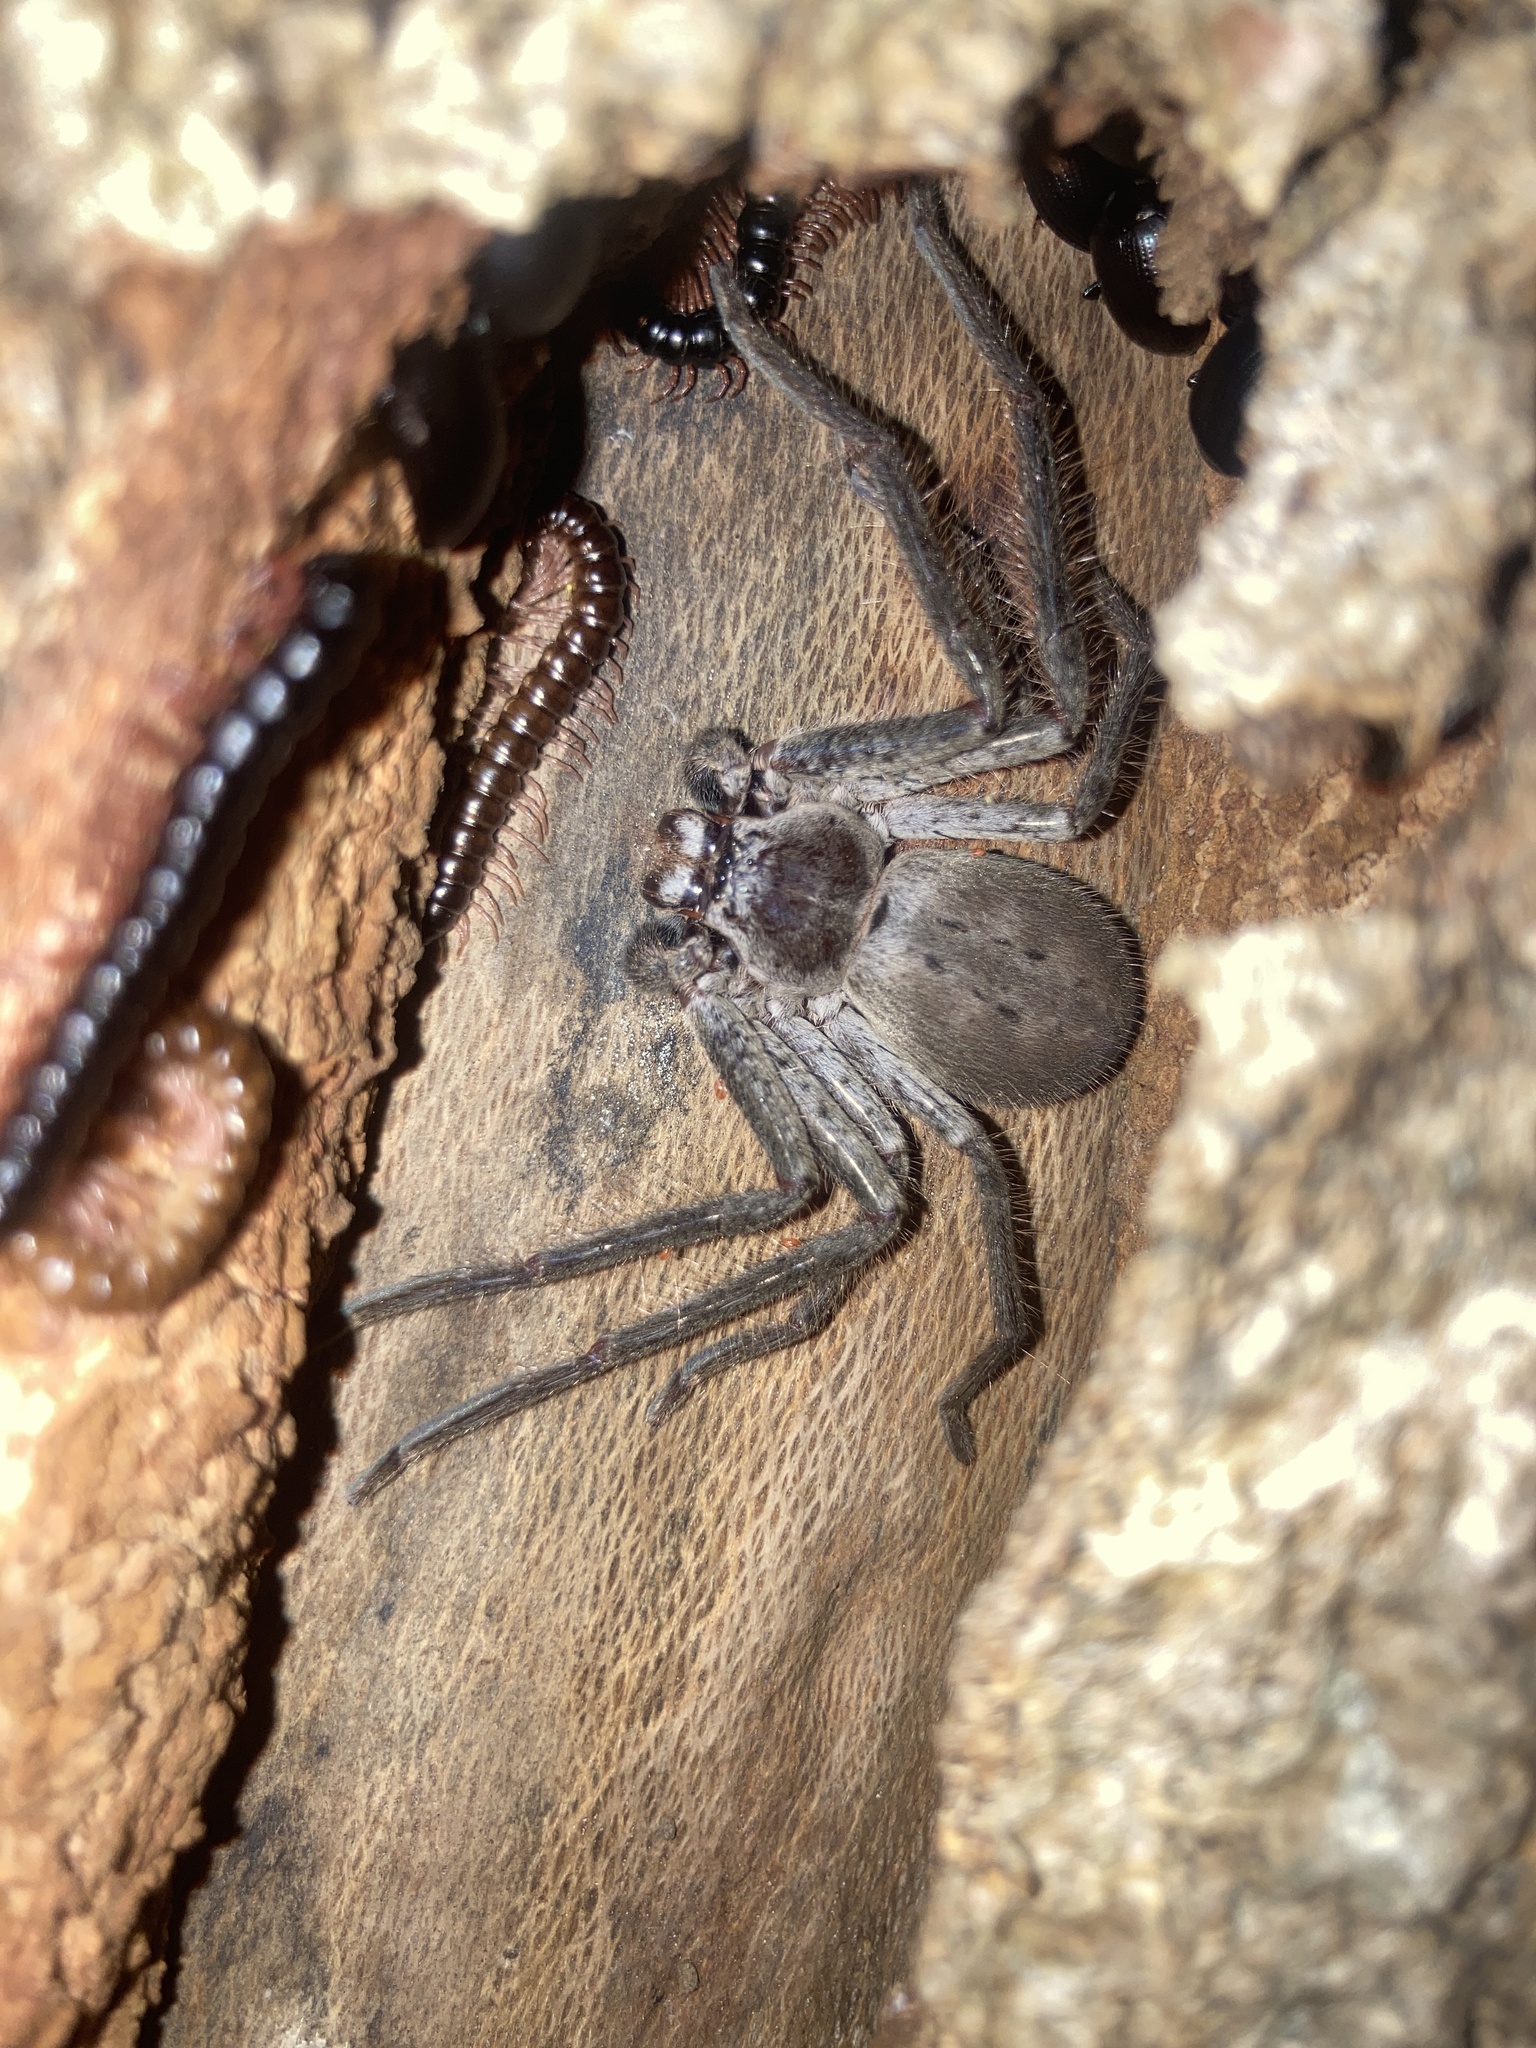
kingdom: Animalia
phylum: Arthropoda
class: Arachnida
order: Araneae
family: Sparassidae
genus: Isopeda
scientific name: Isopeda villosa
